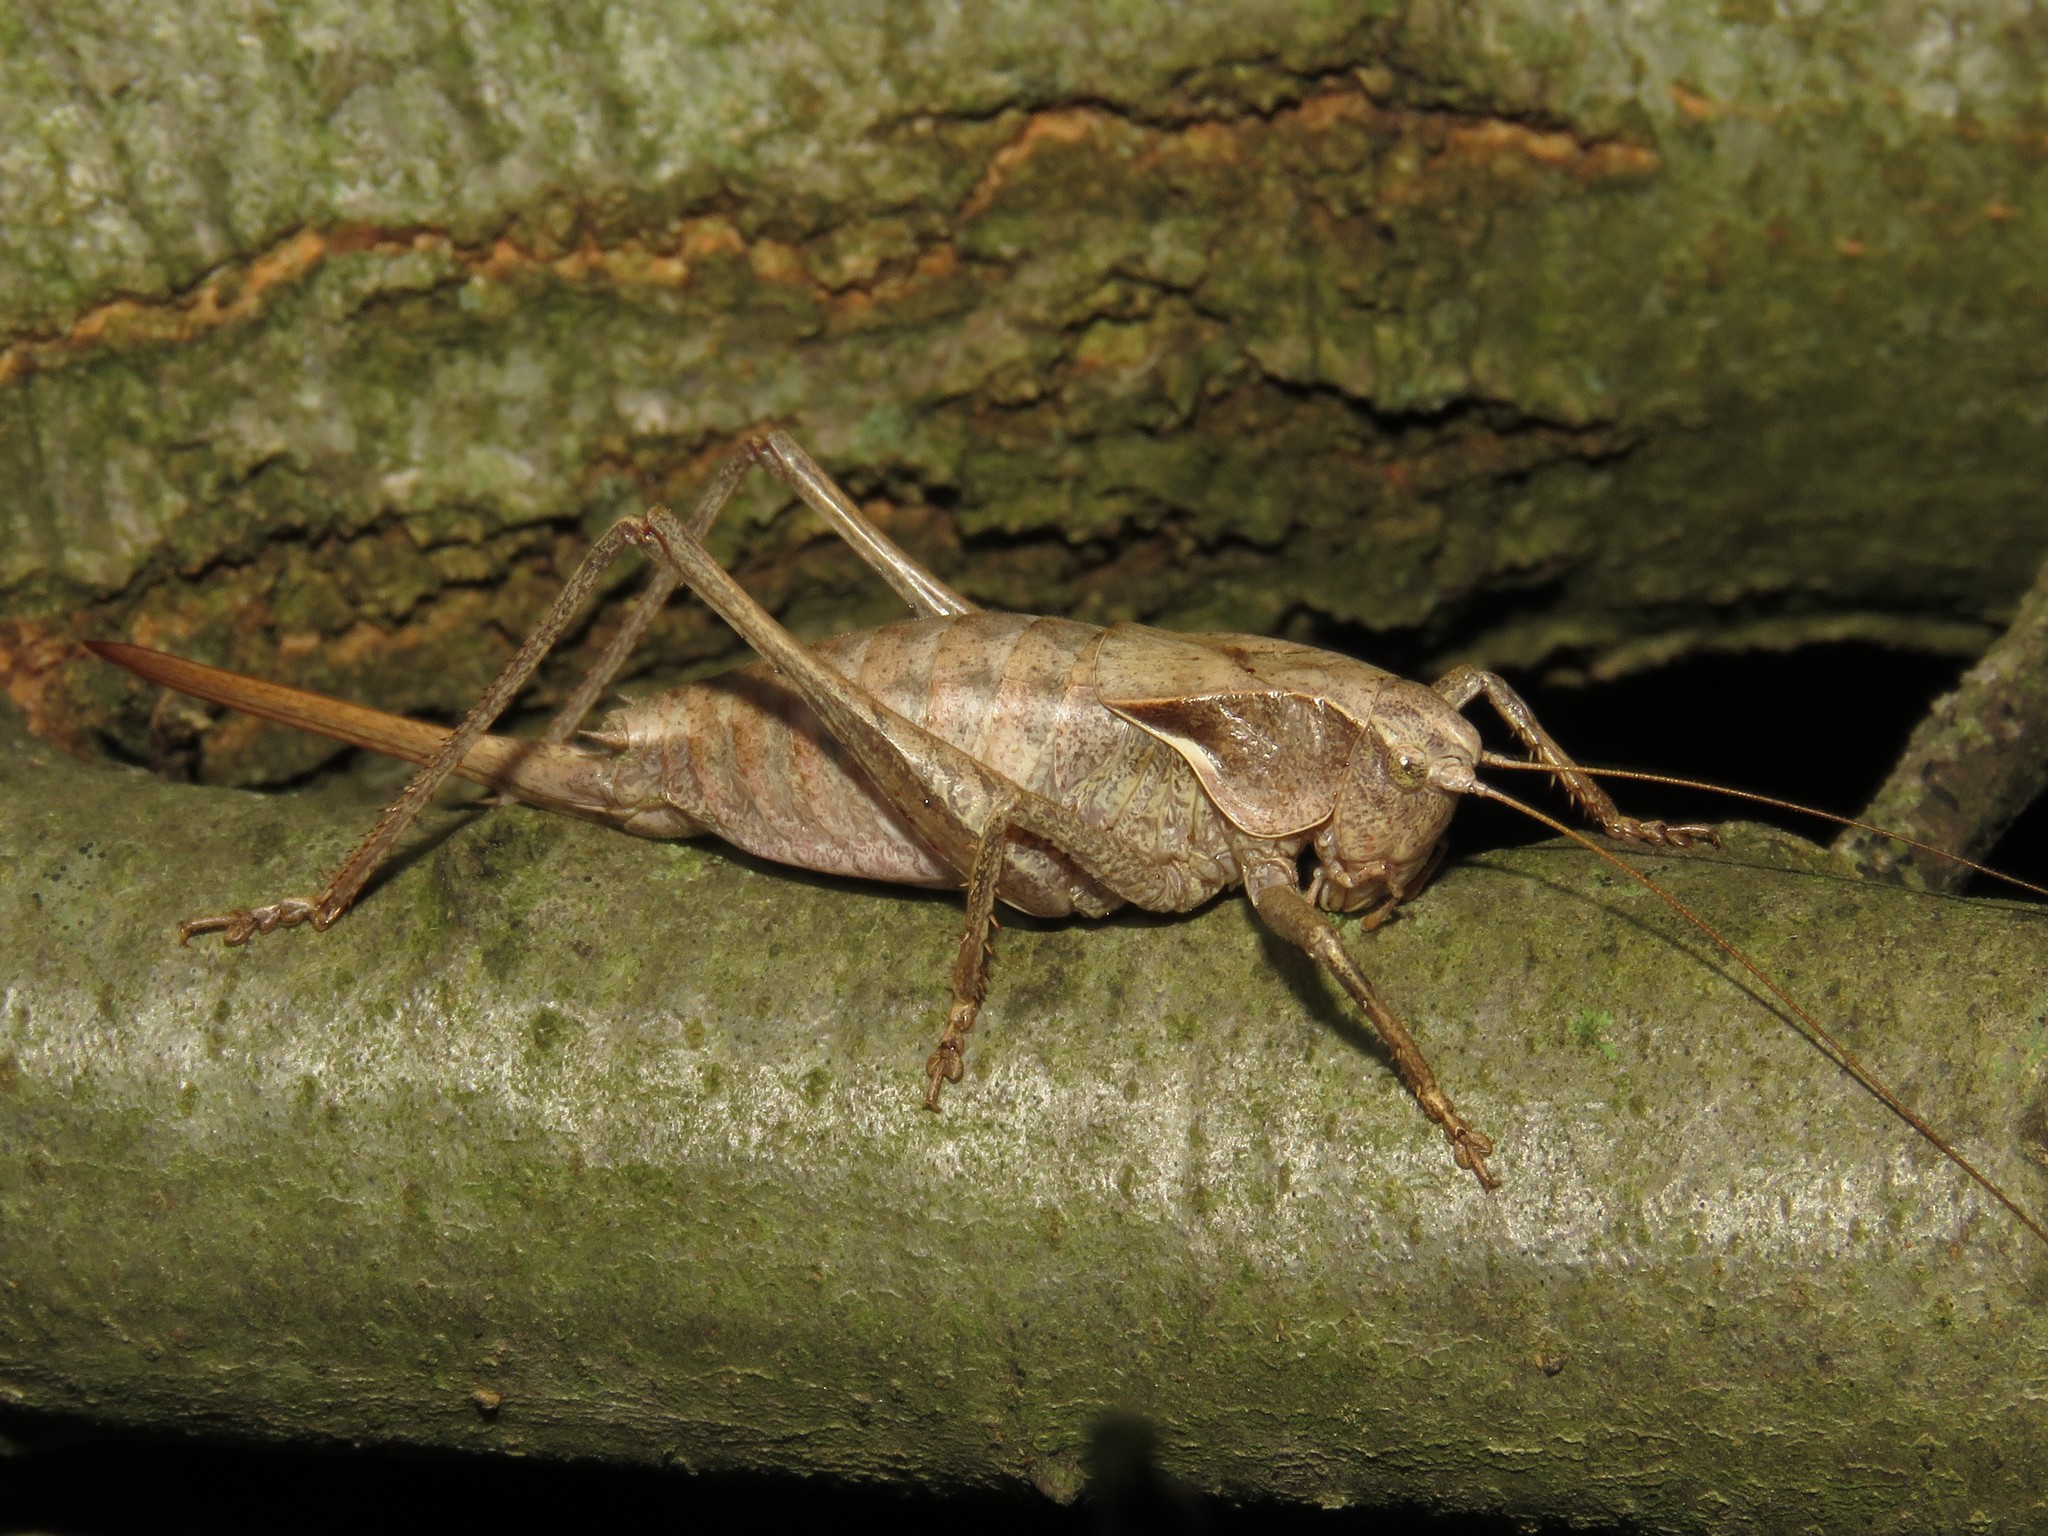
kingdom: Animalia
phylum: Arthropoda
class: Insecta
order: Orthoptera
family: Tettigoniidae
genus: Atlanticus
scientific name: Atlanticus davisi
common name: Davis's shield-bearer
